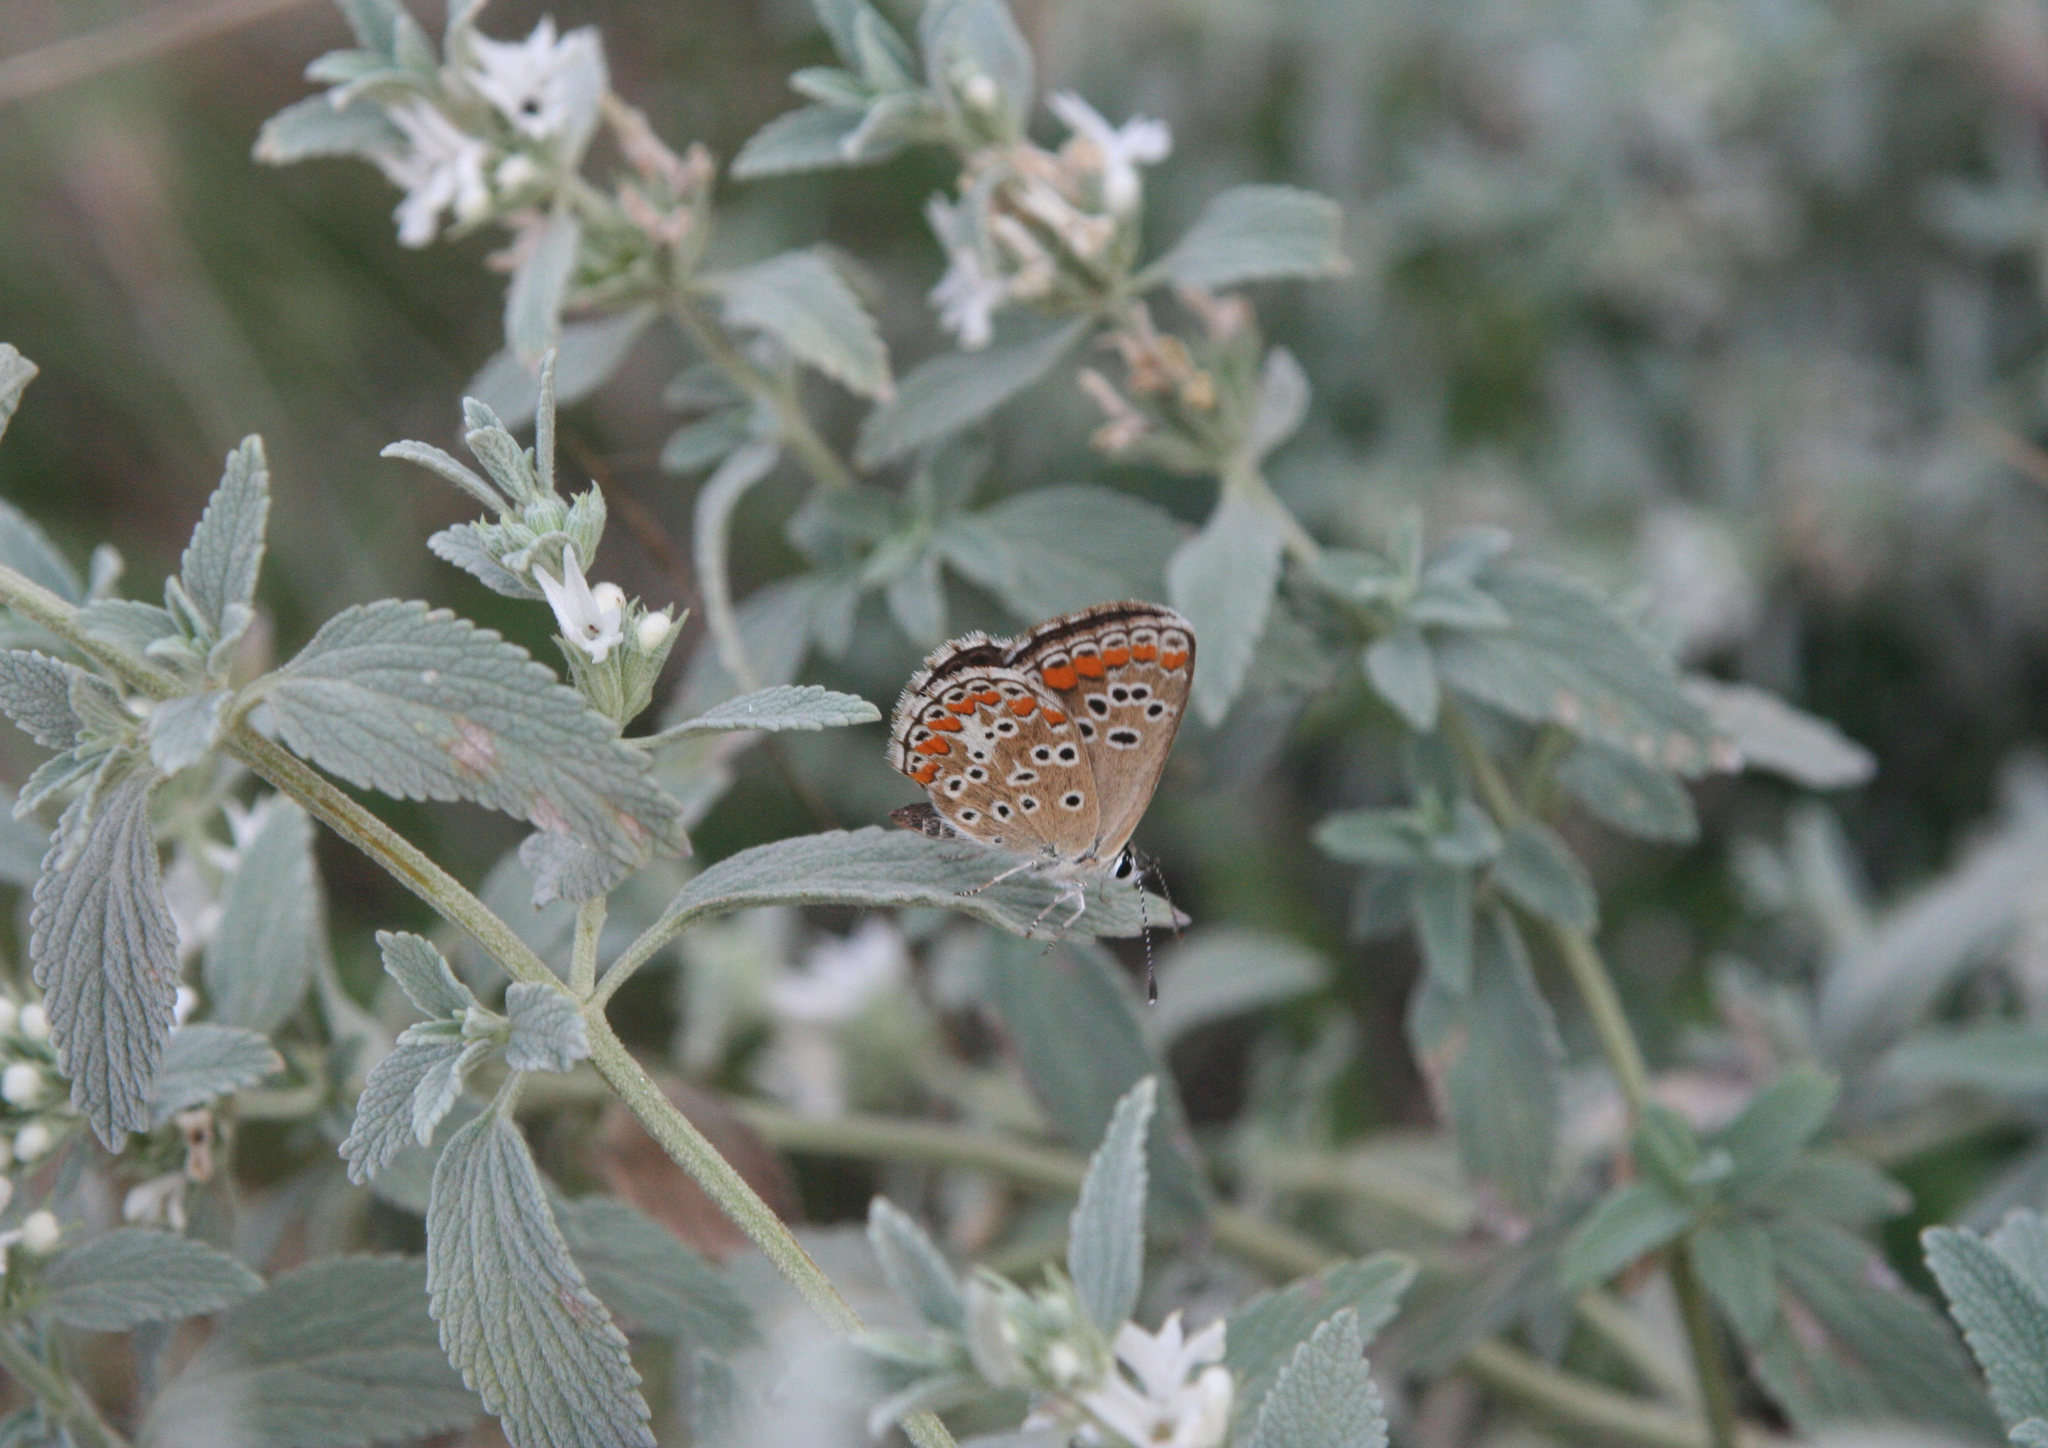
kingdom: Plantae
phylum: Tracheophyta
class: Magnoliopsida
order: Lamiales
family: Lamiaceae
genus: Marrubium
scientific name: Marrubium peregrinum
